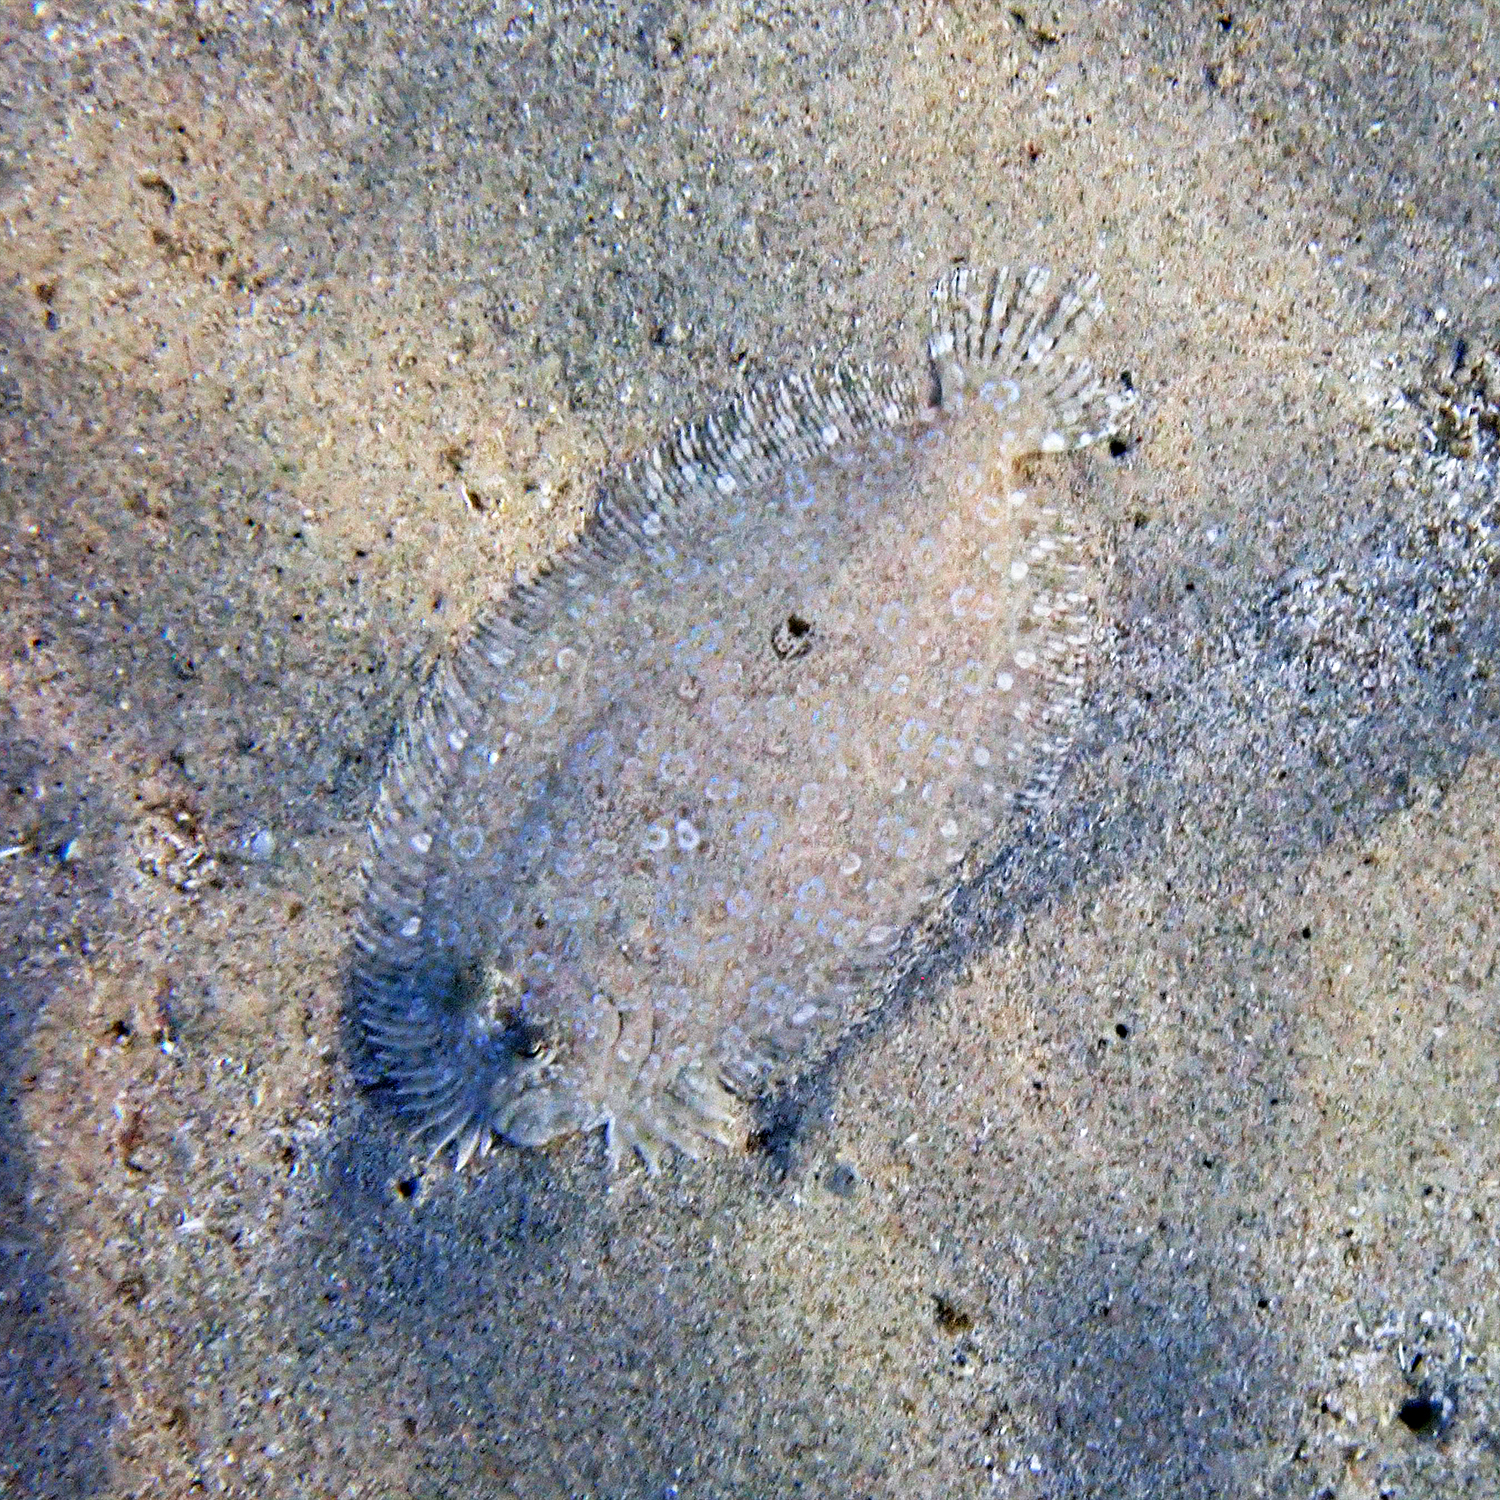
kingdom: Animalia
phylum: Chordata
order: Pleuronectiformes
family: Bothidae
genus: Bothus
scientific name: Bothus pantherinus
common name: Leopard flounder
